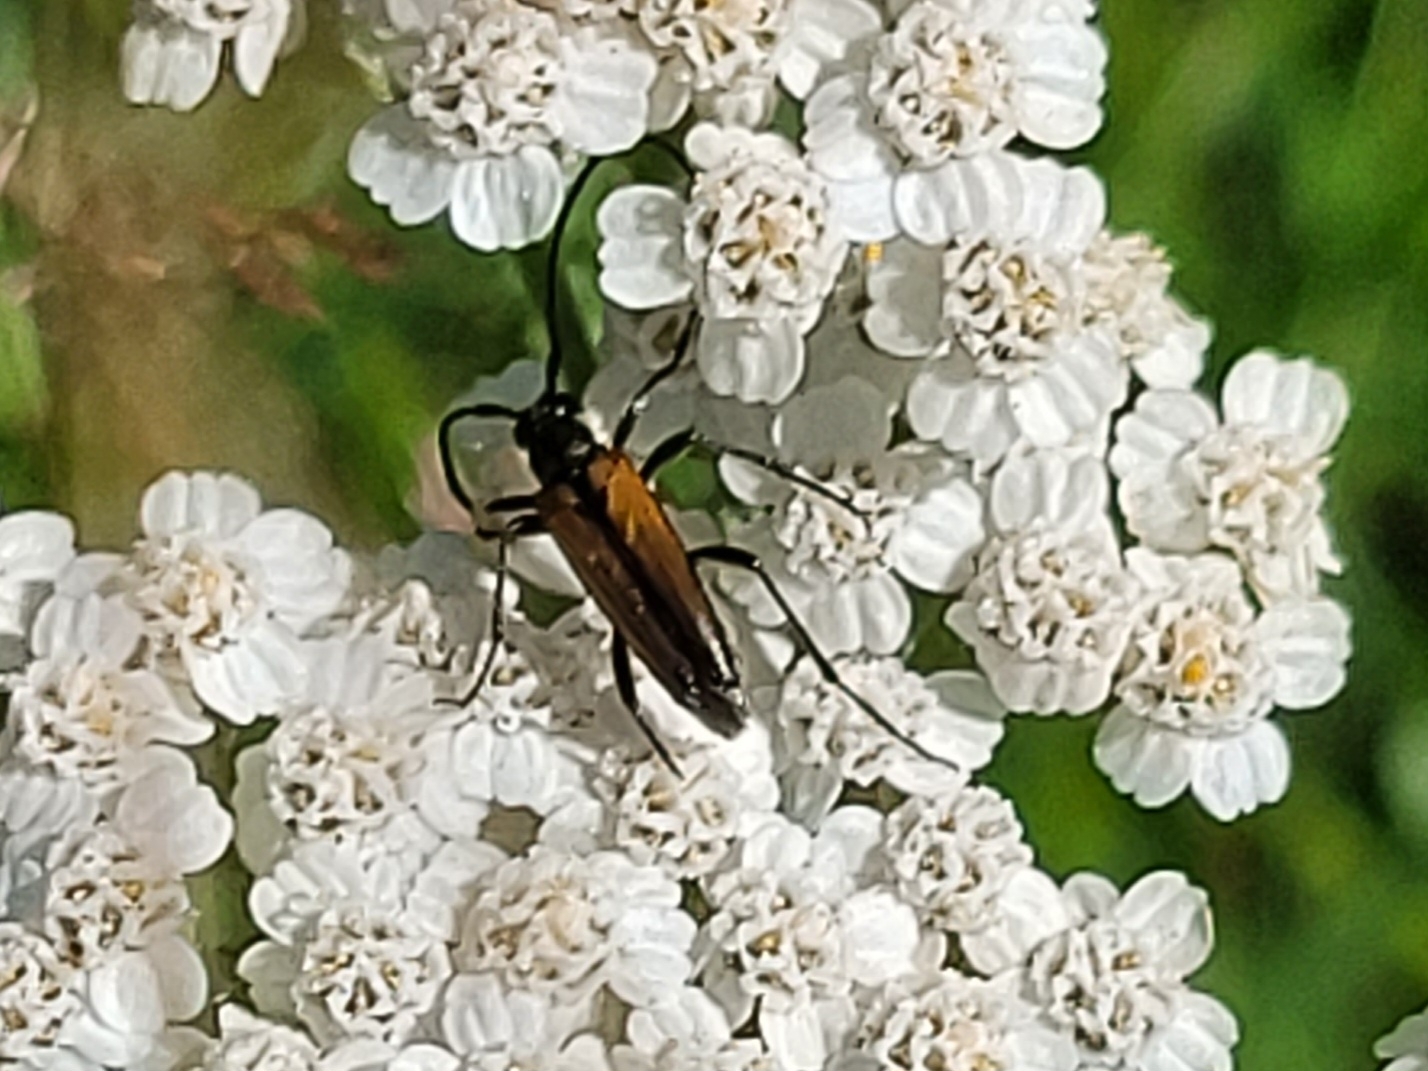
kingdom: Animalia
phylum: Arthropoda
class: Insecta
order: Coleoptera
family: Cerambycidae
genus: Stenurella
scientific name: Stenurella melanura
